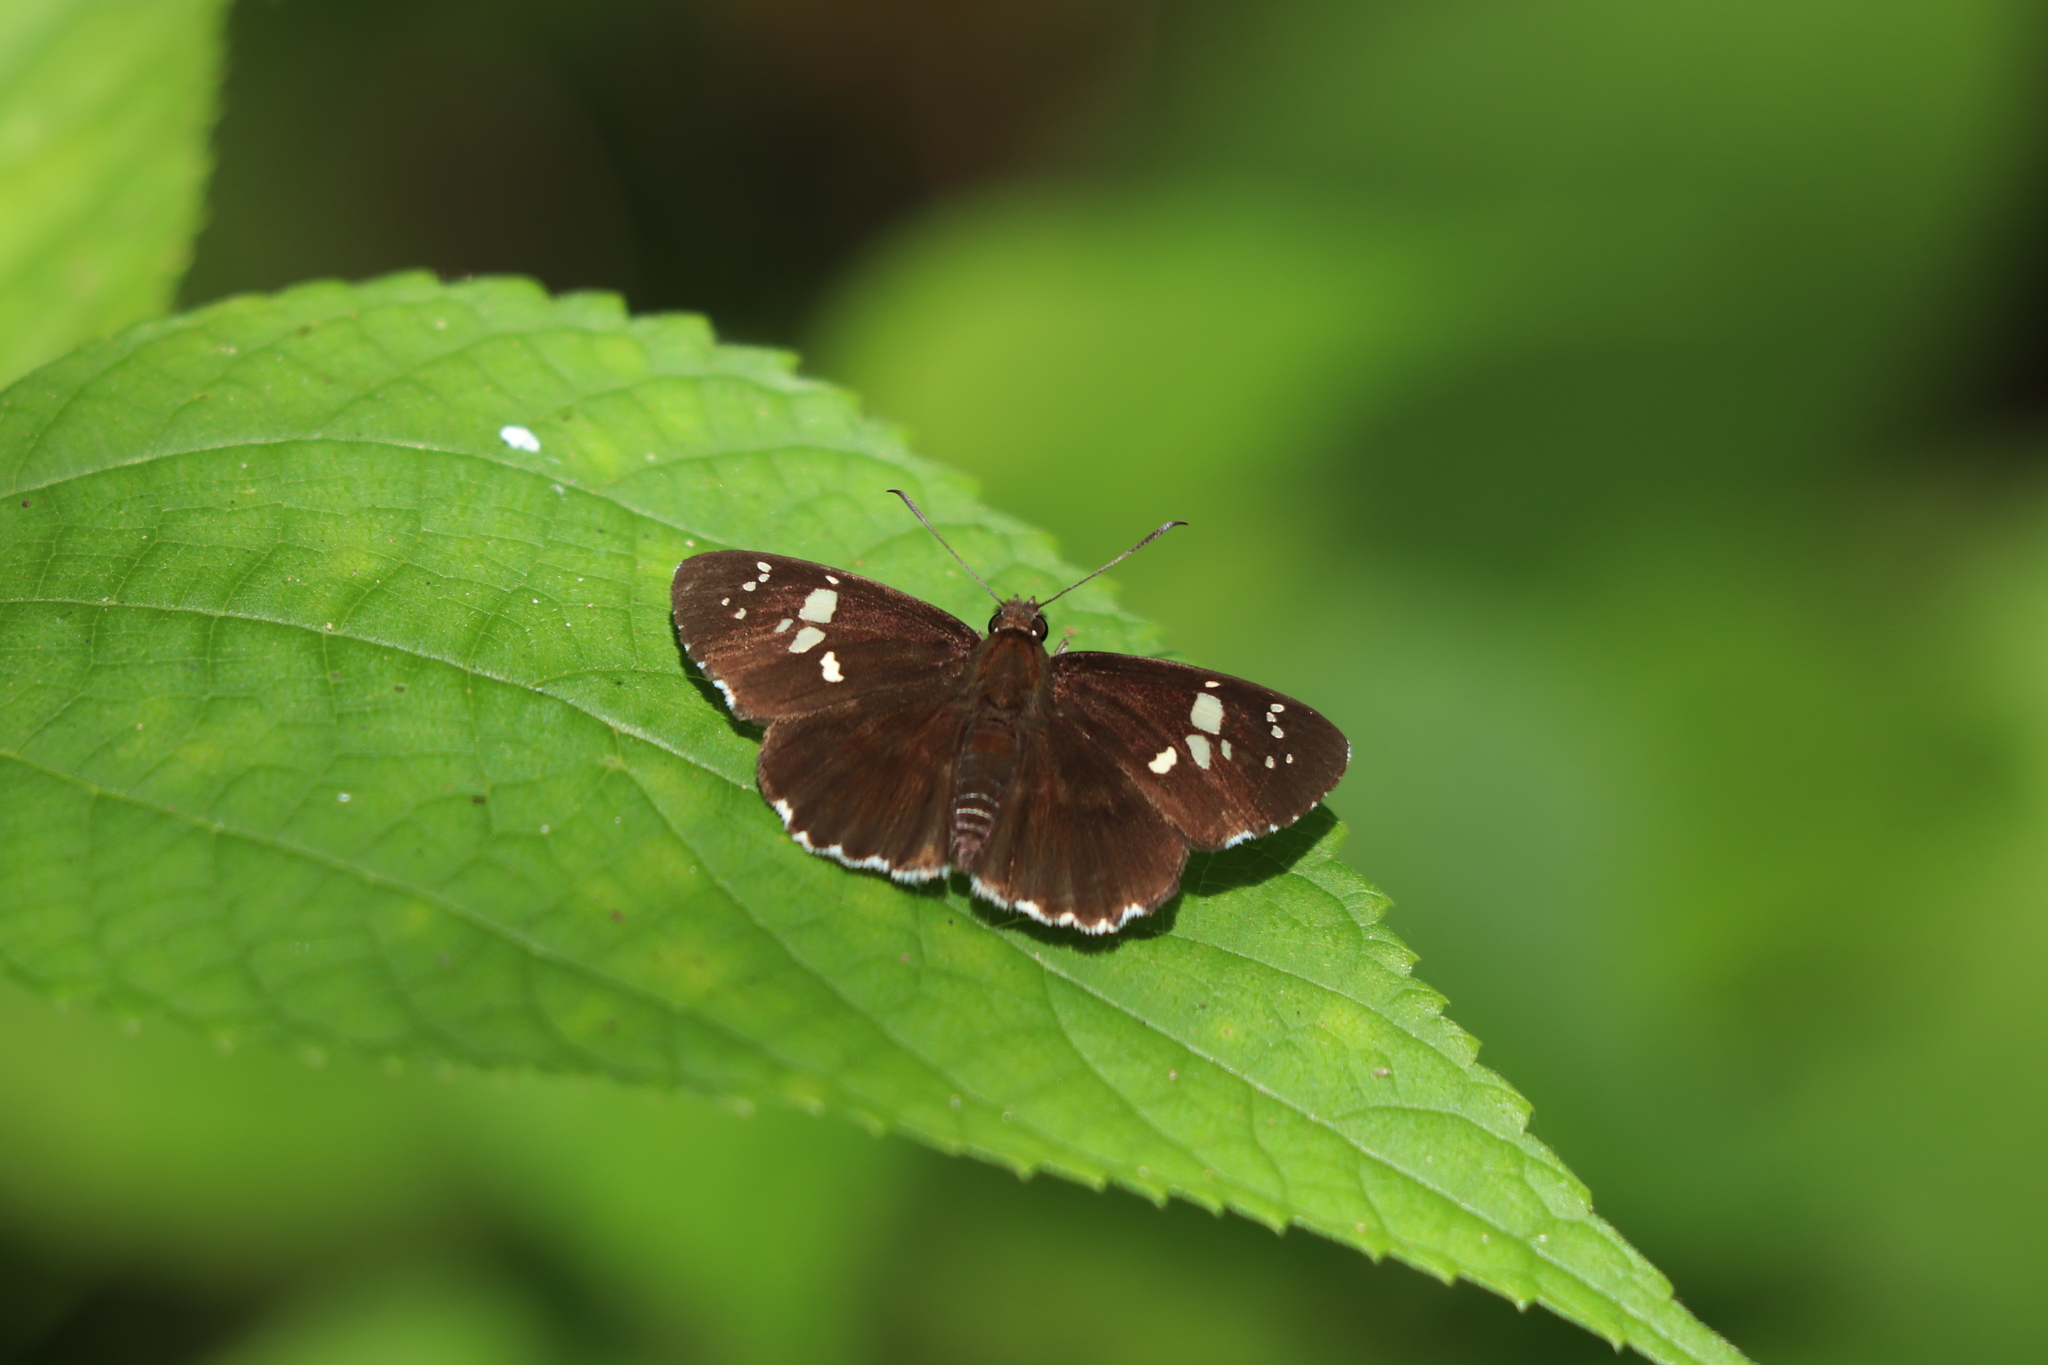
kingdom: Animalia
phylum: Arthropoda
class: Insecta
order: Lepidoptera
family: Hesperiidae
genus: Daimio
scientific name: Daimio tethys
